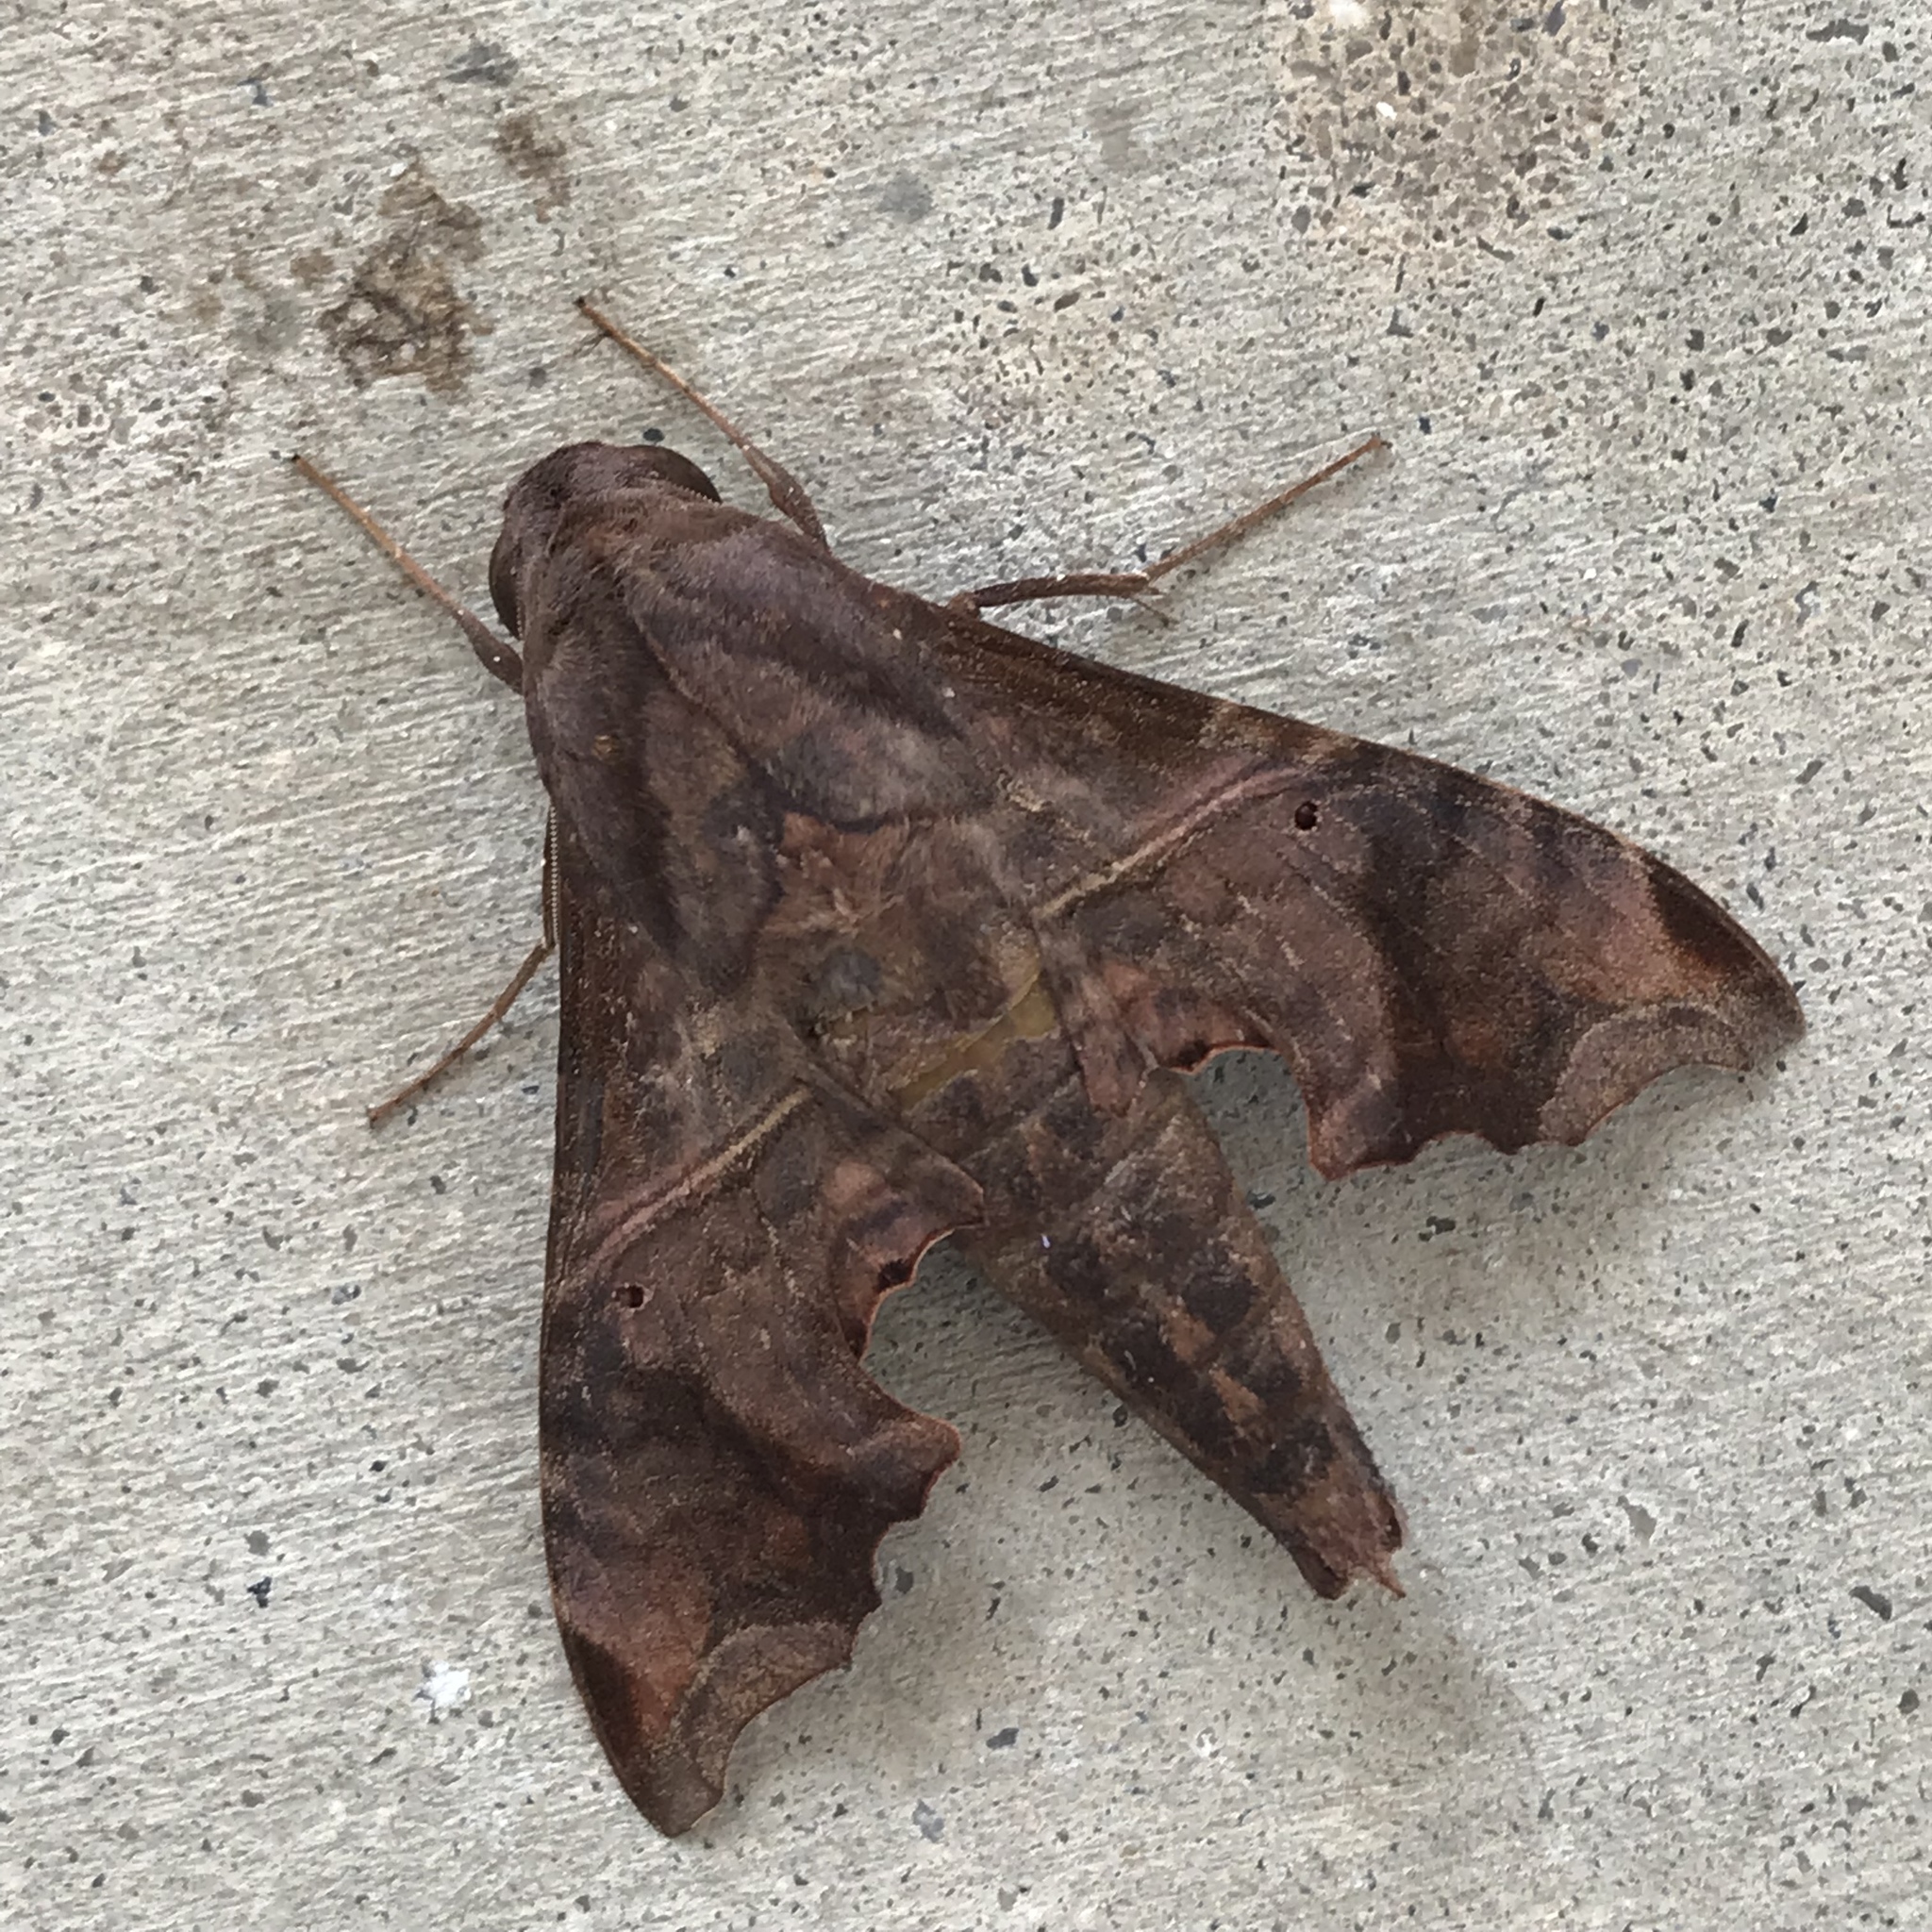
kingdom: Animalia
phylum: Arthropoda
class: Insecta
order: Lepidoptera
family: Sphingidae
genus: Enyo
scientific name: Enyo lugubris
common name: Mournful sphinx
